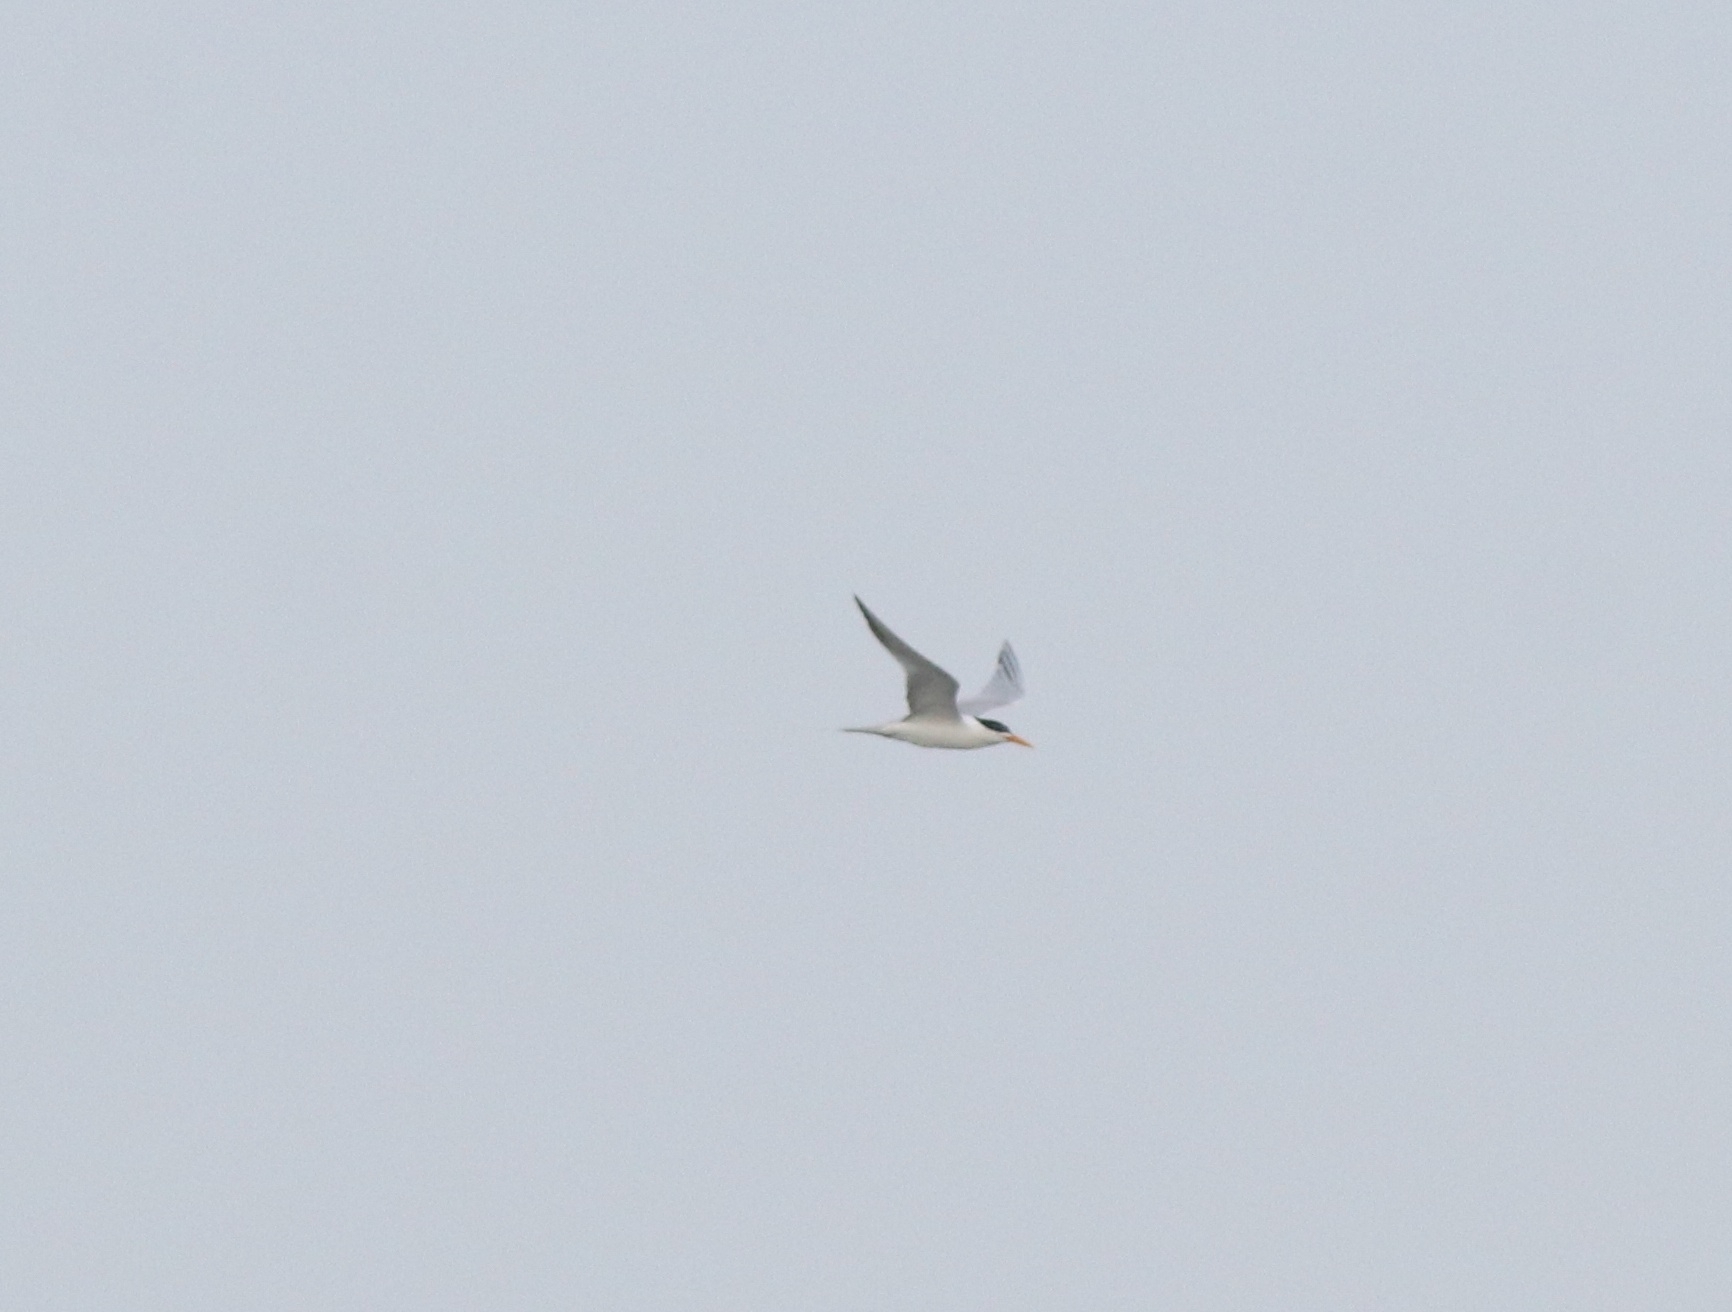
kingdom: Animalia
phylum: Chordata
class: Aves
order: Charadriiformes
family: Laridae
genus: Thalasseus
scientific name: Thalasseus bengalensis
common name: Lesser crested tern
